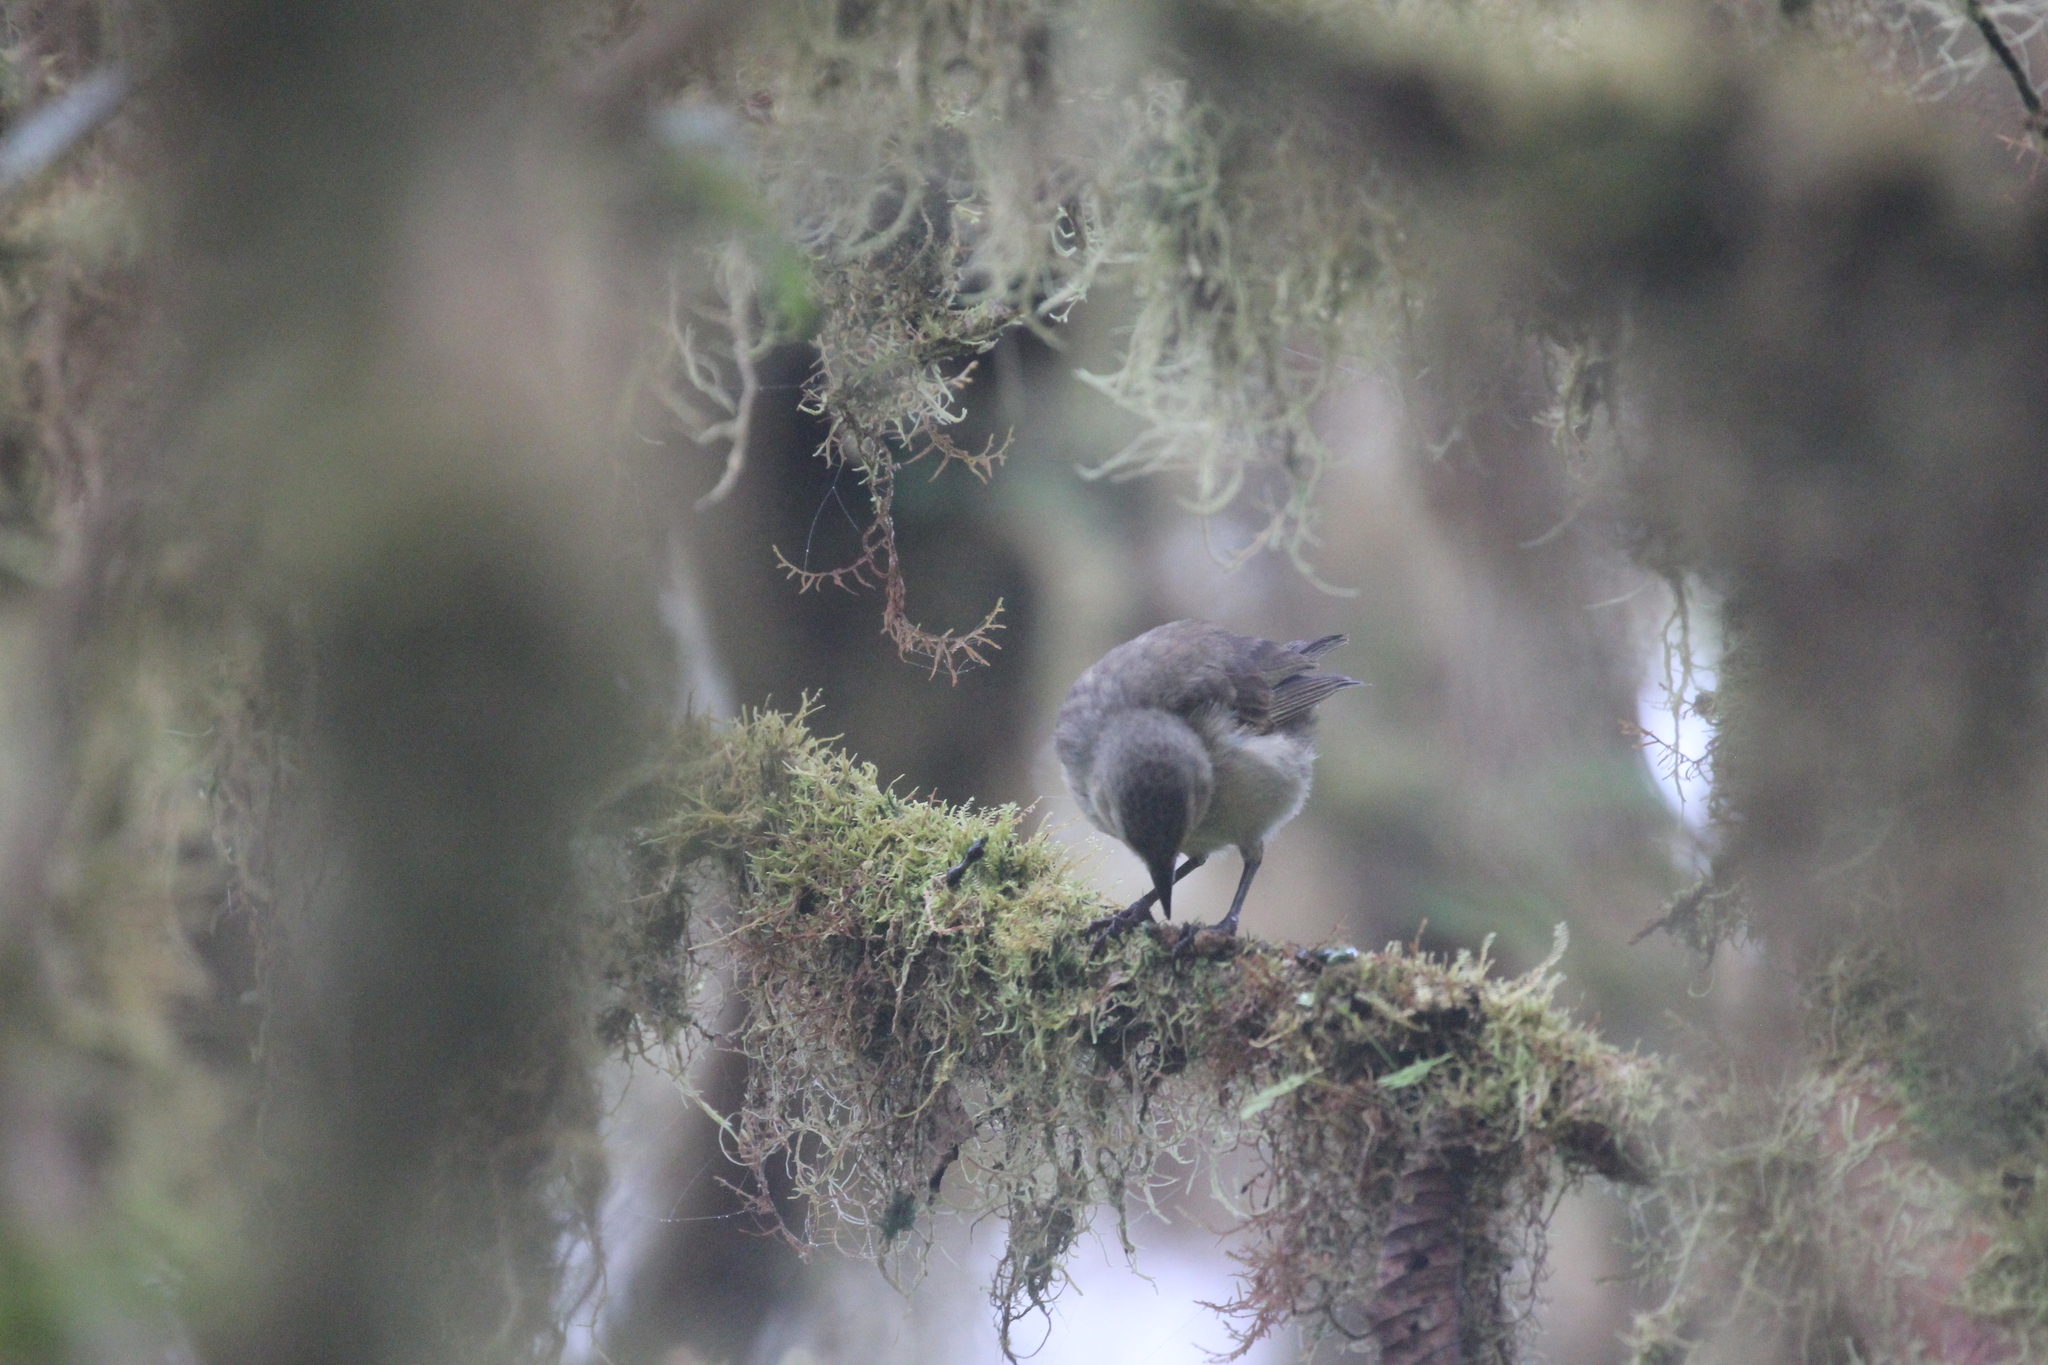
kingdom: Animalia
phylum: Chordata
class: Aves
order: Passeriformes
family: Thraupidae
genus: Camarhynchus
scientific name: Camarhynchus pallidus
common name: Woodpecker finch
